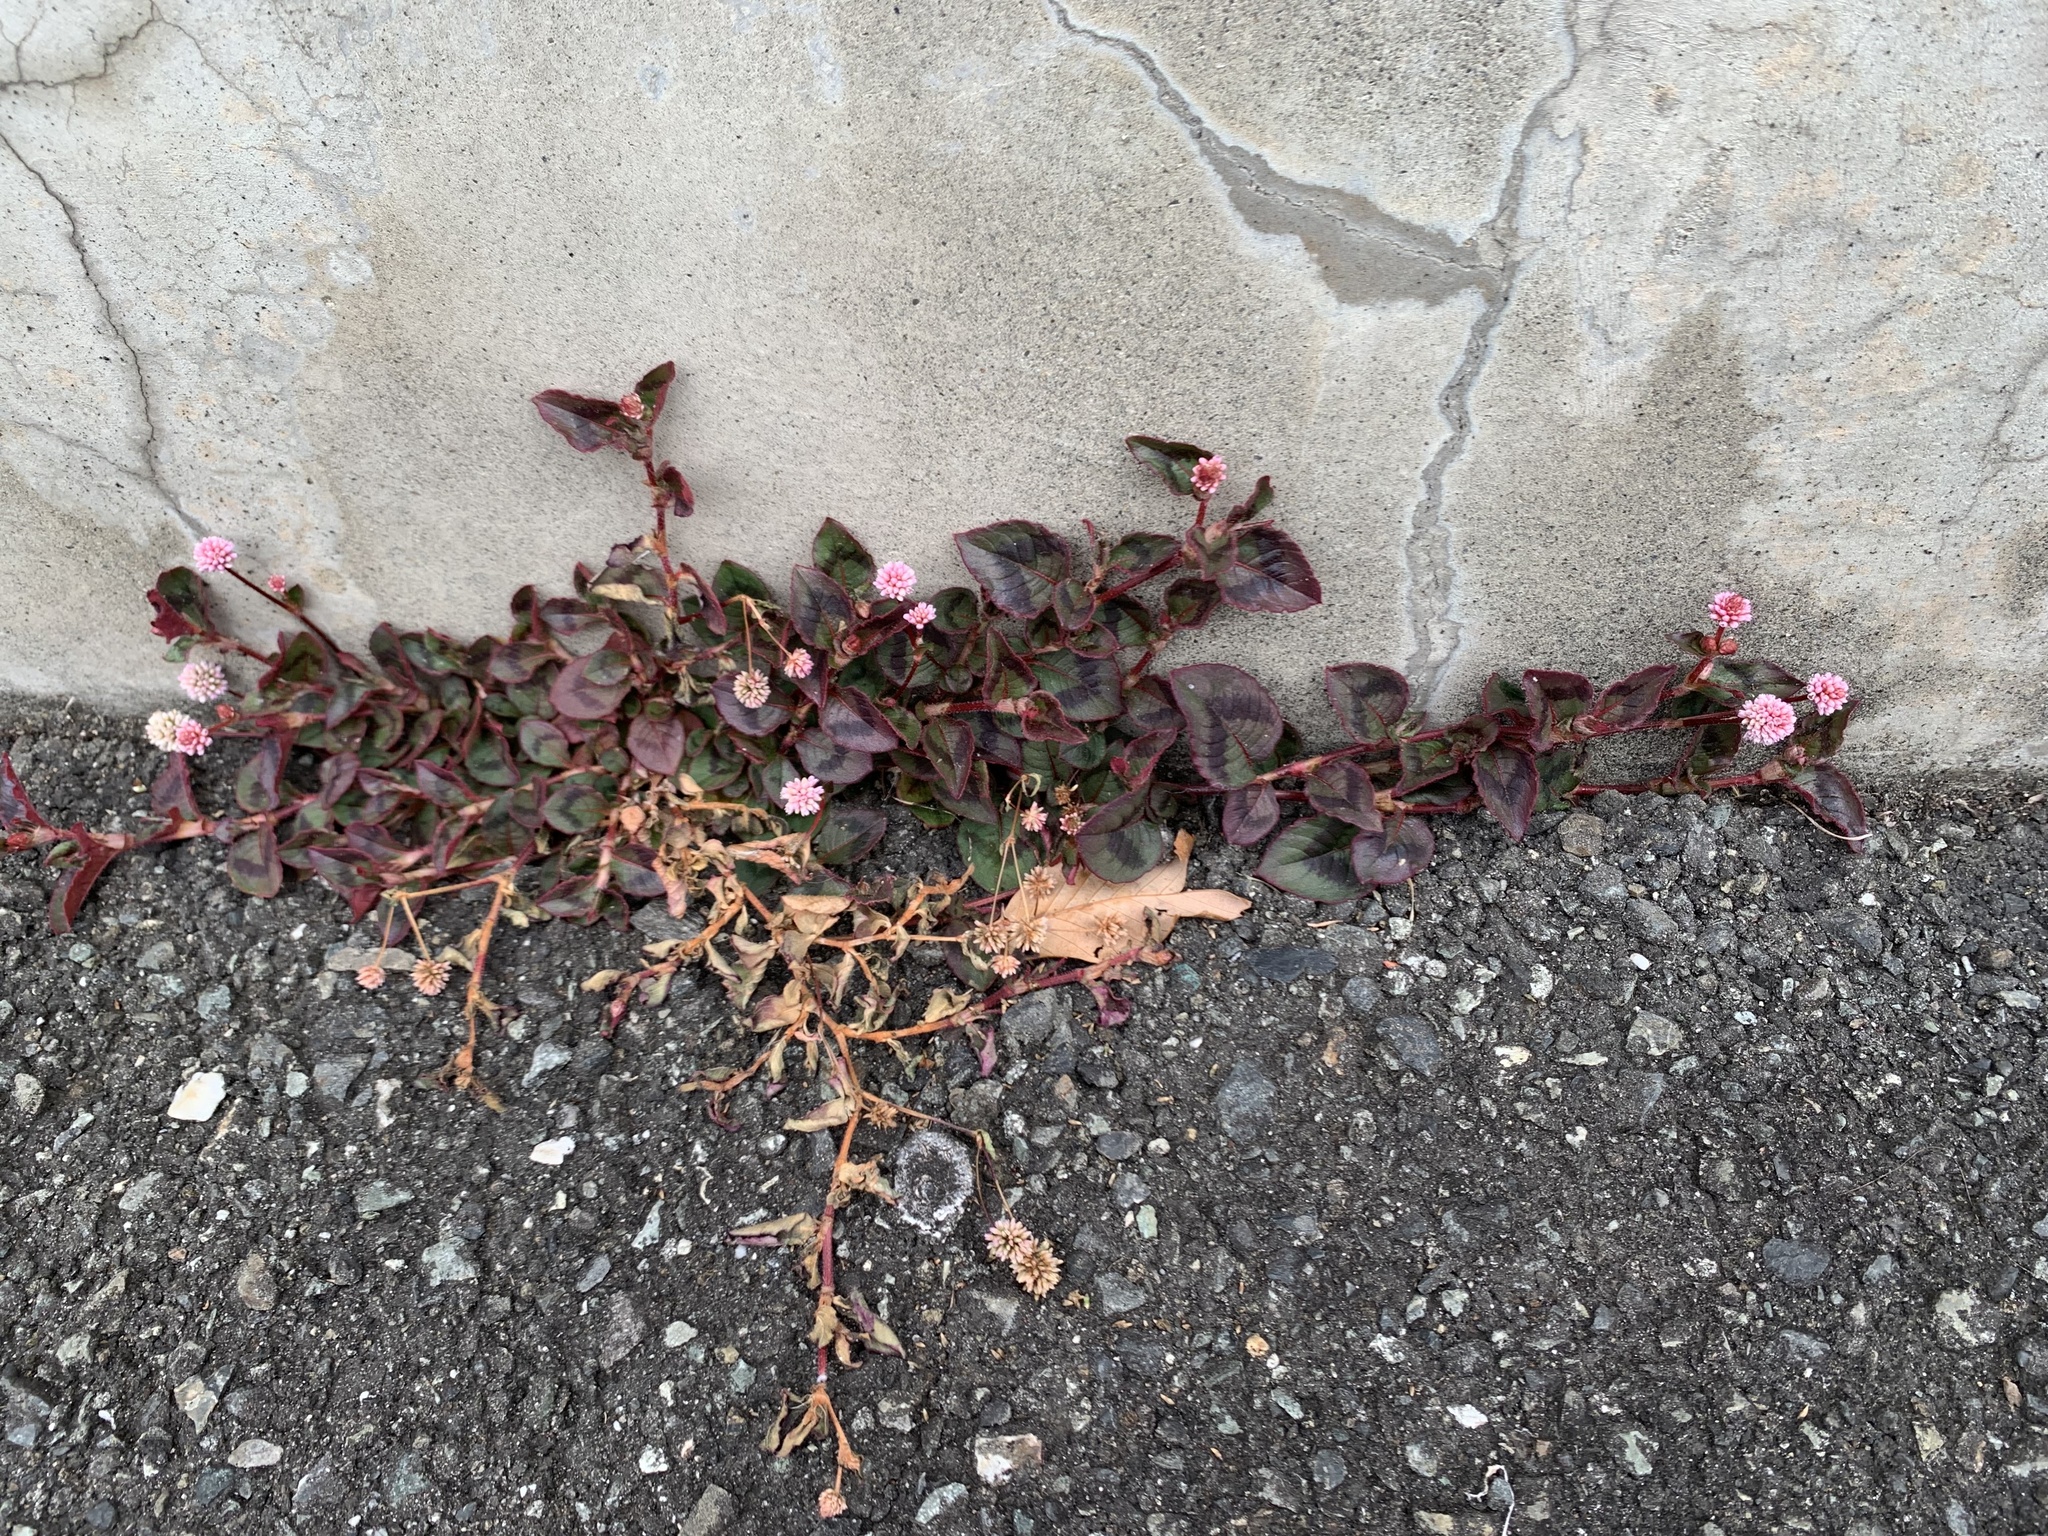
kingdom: Plantae
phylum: Tracheophyta
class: Magnoliopsida
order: Caryophyllales
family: Polygonaceae
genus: Persicaria
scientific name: Persicaria capitata
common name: Pinkhead smartweed
